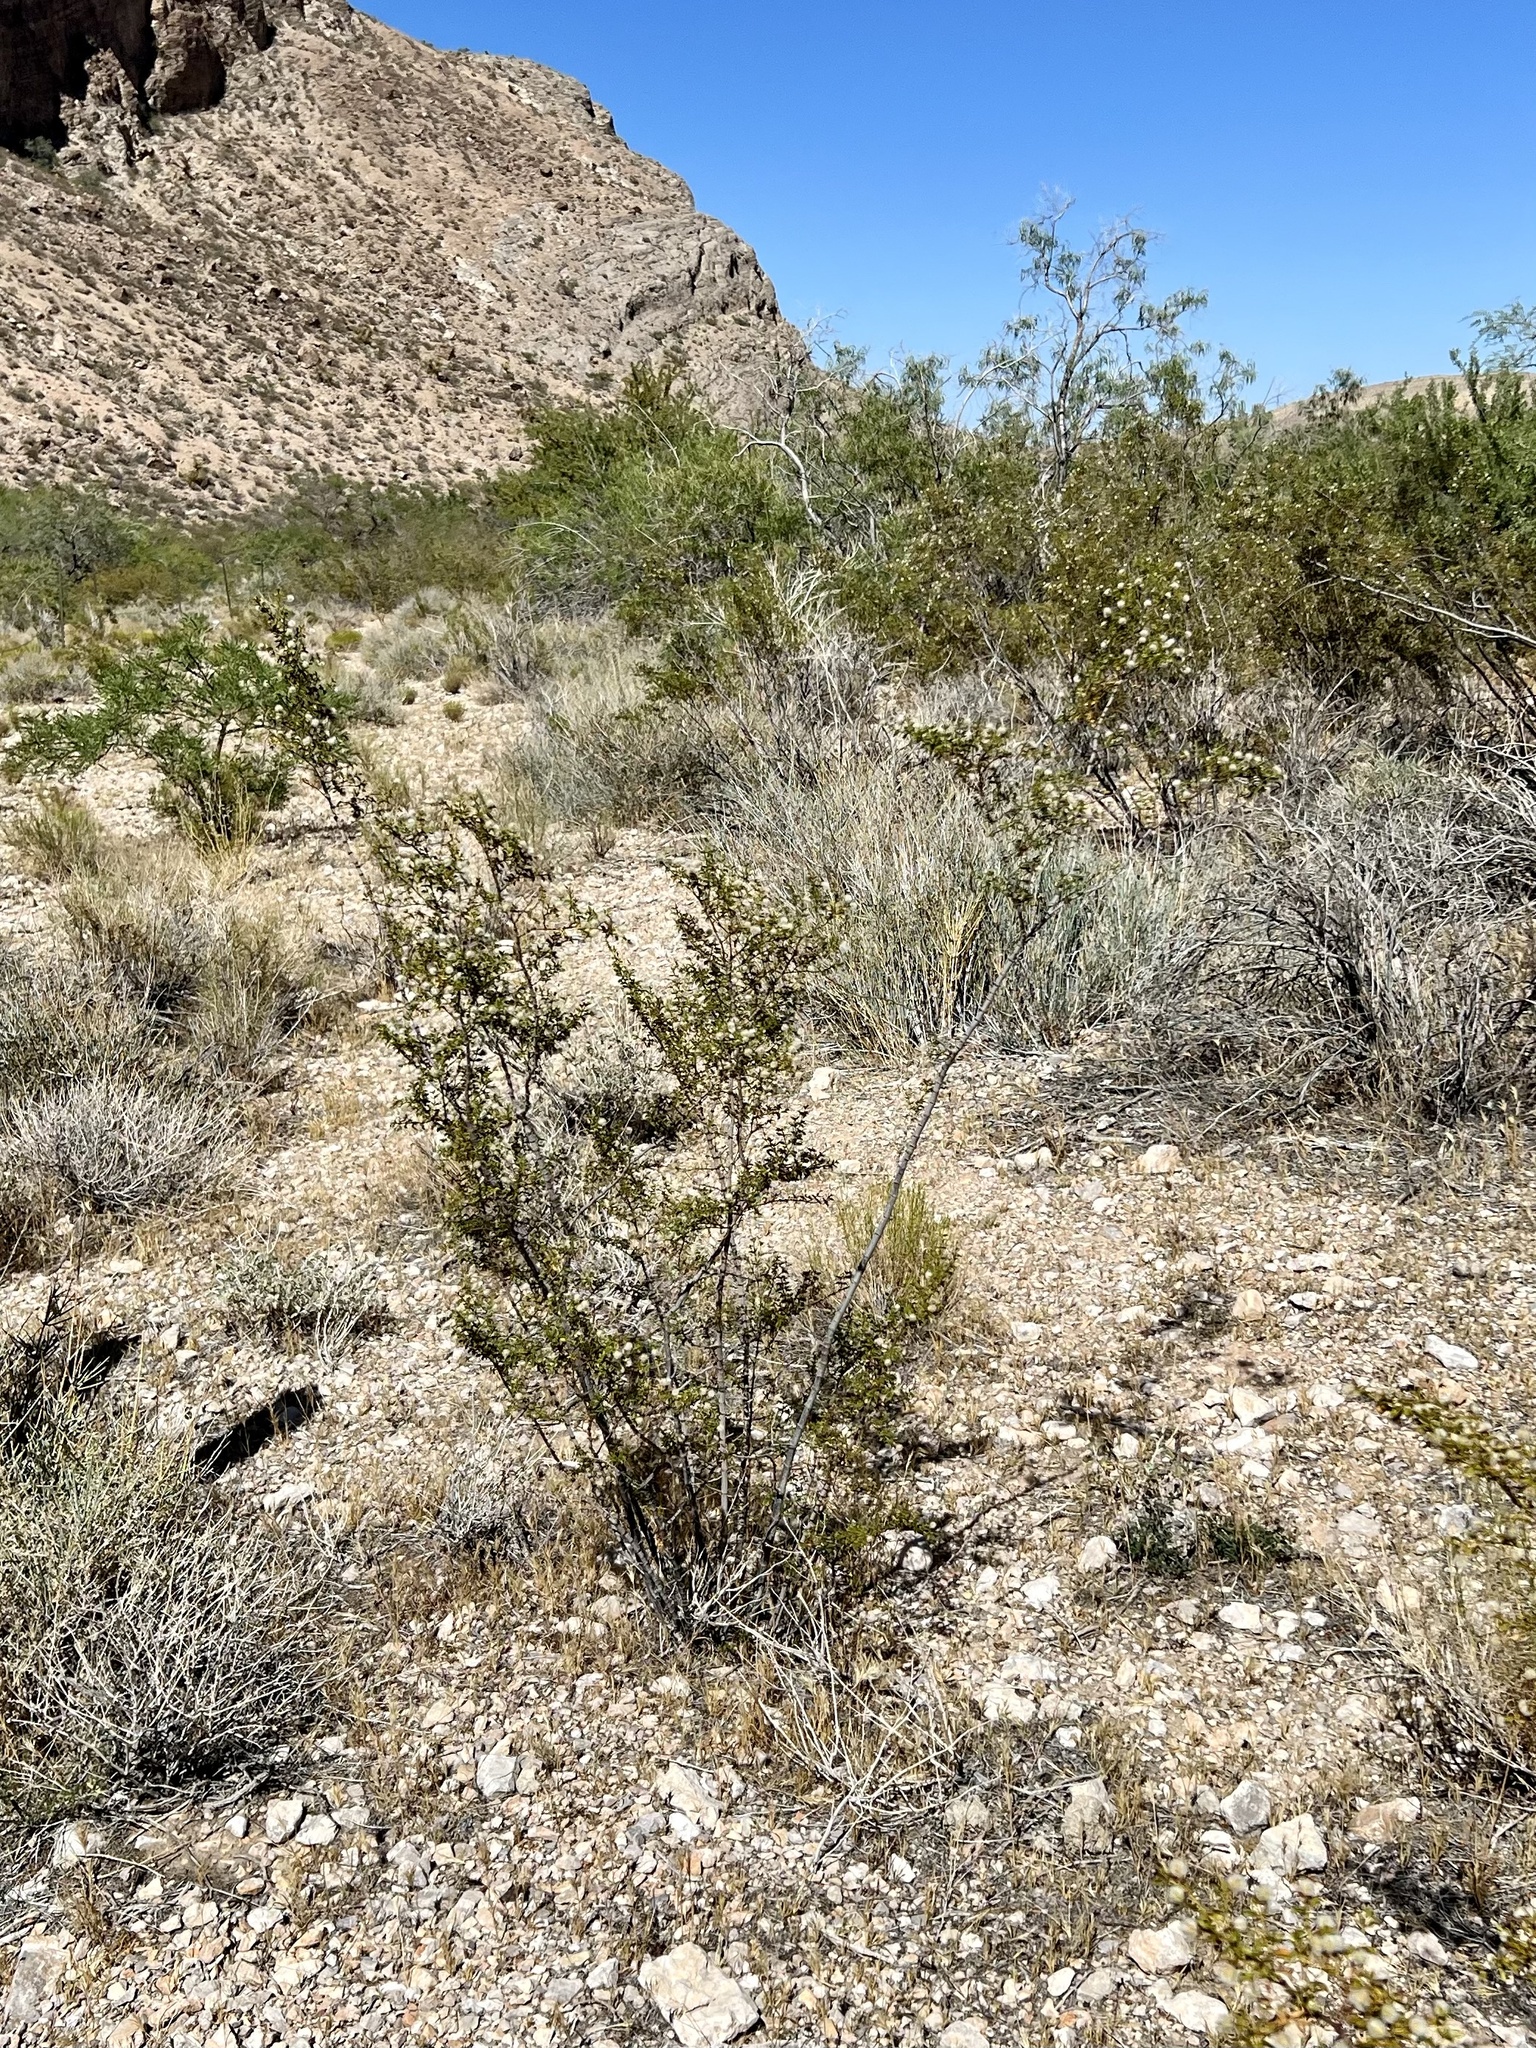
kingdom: Plantae
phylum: Tracheophyta
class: Magnoliopsida
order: Zygophyllales
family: Zygophyllaceae
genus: Larrea
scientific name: Larrea tridentata
